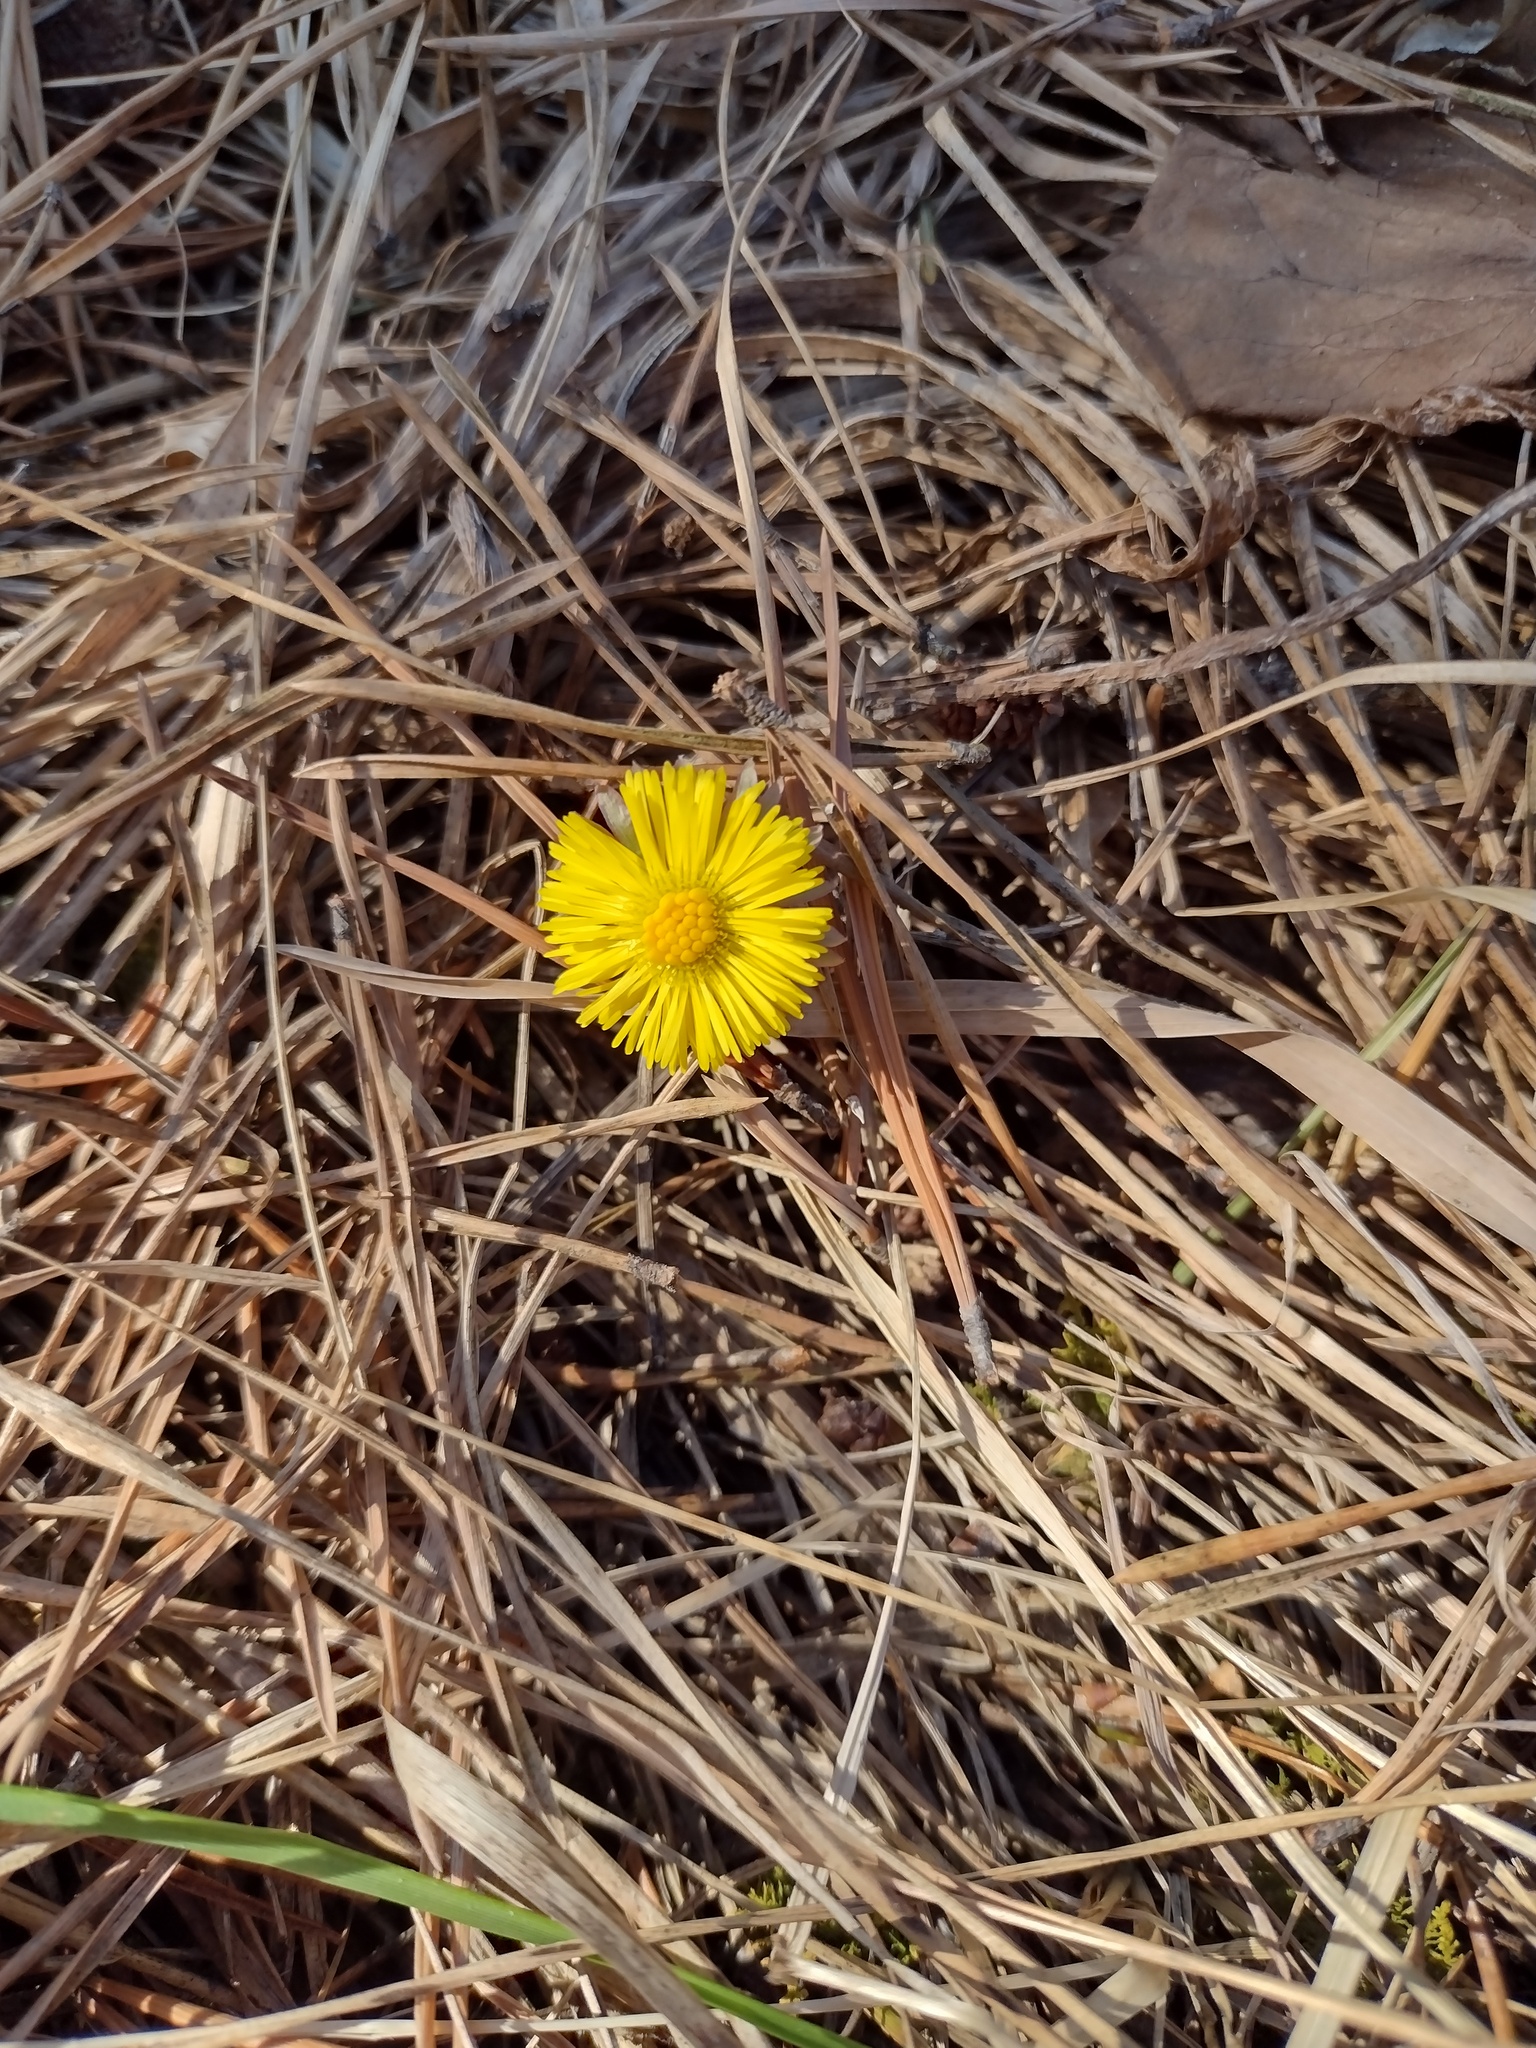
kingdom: Plantae
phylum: Tracheophyta
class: Magnoliopsida
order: Asterales
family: Asteraceae
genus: Tussilago
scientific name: Tussilago farfara
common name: Coltsfoot
